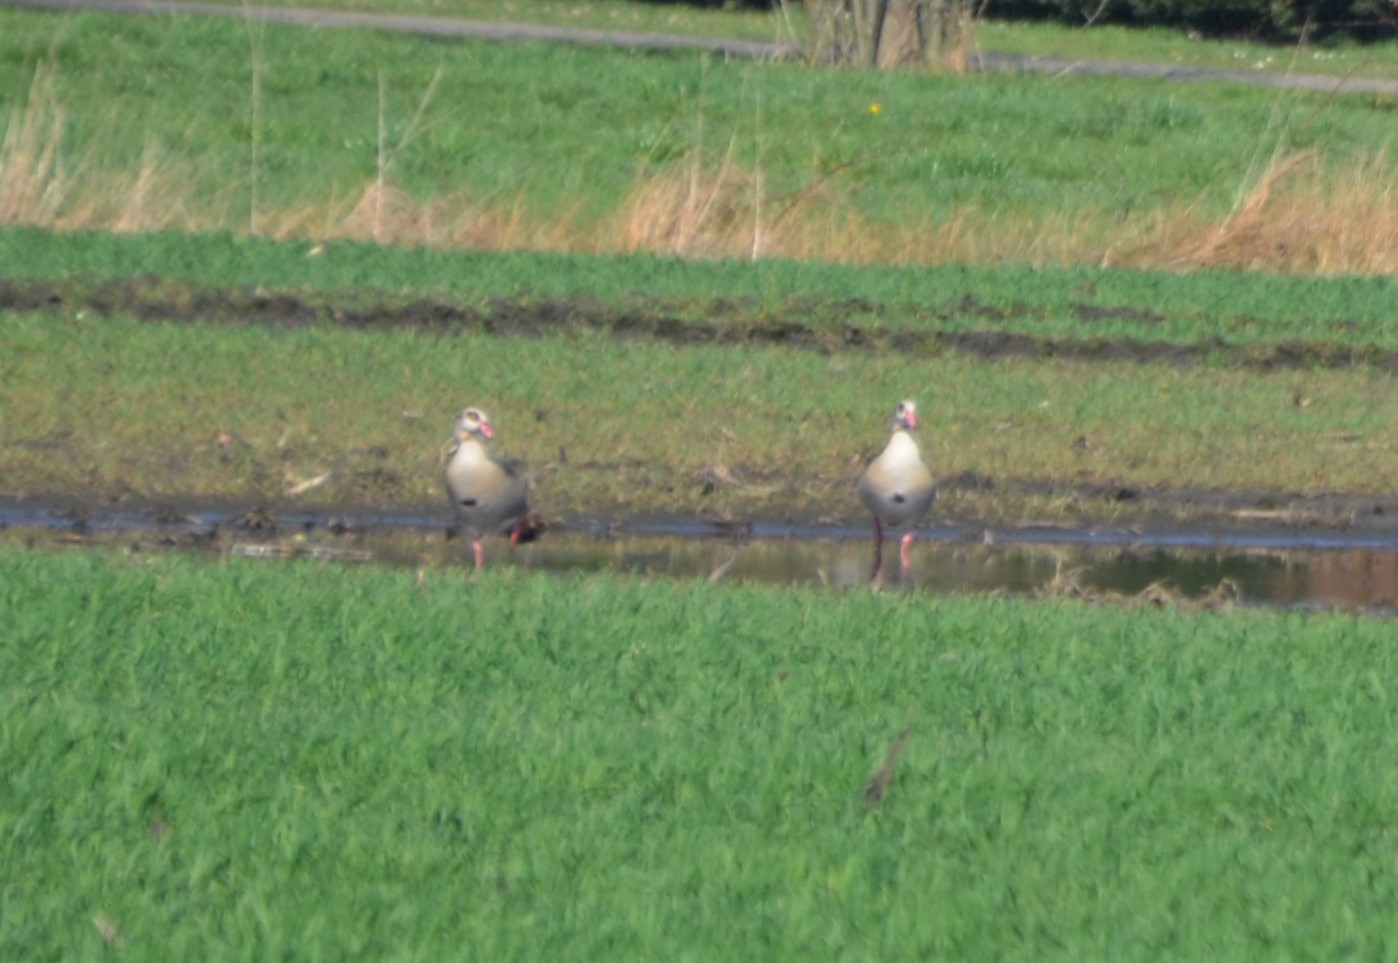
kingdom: Animalia
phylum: Chordata
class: Aves
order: Anseriformes
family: Anatidae
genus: Alopochen
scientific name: Alopochen aegyptiaca
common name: Egyptian goose
